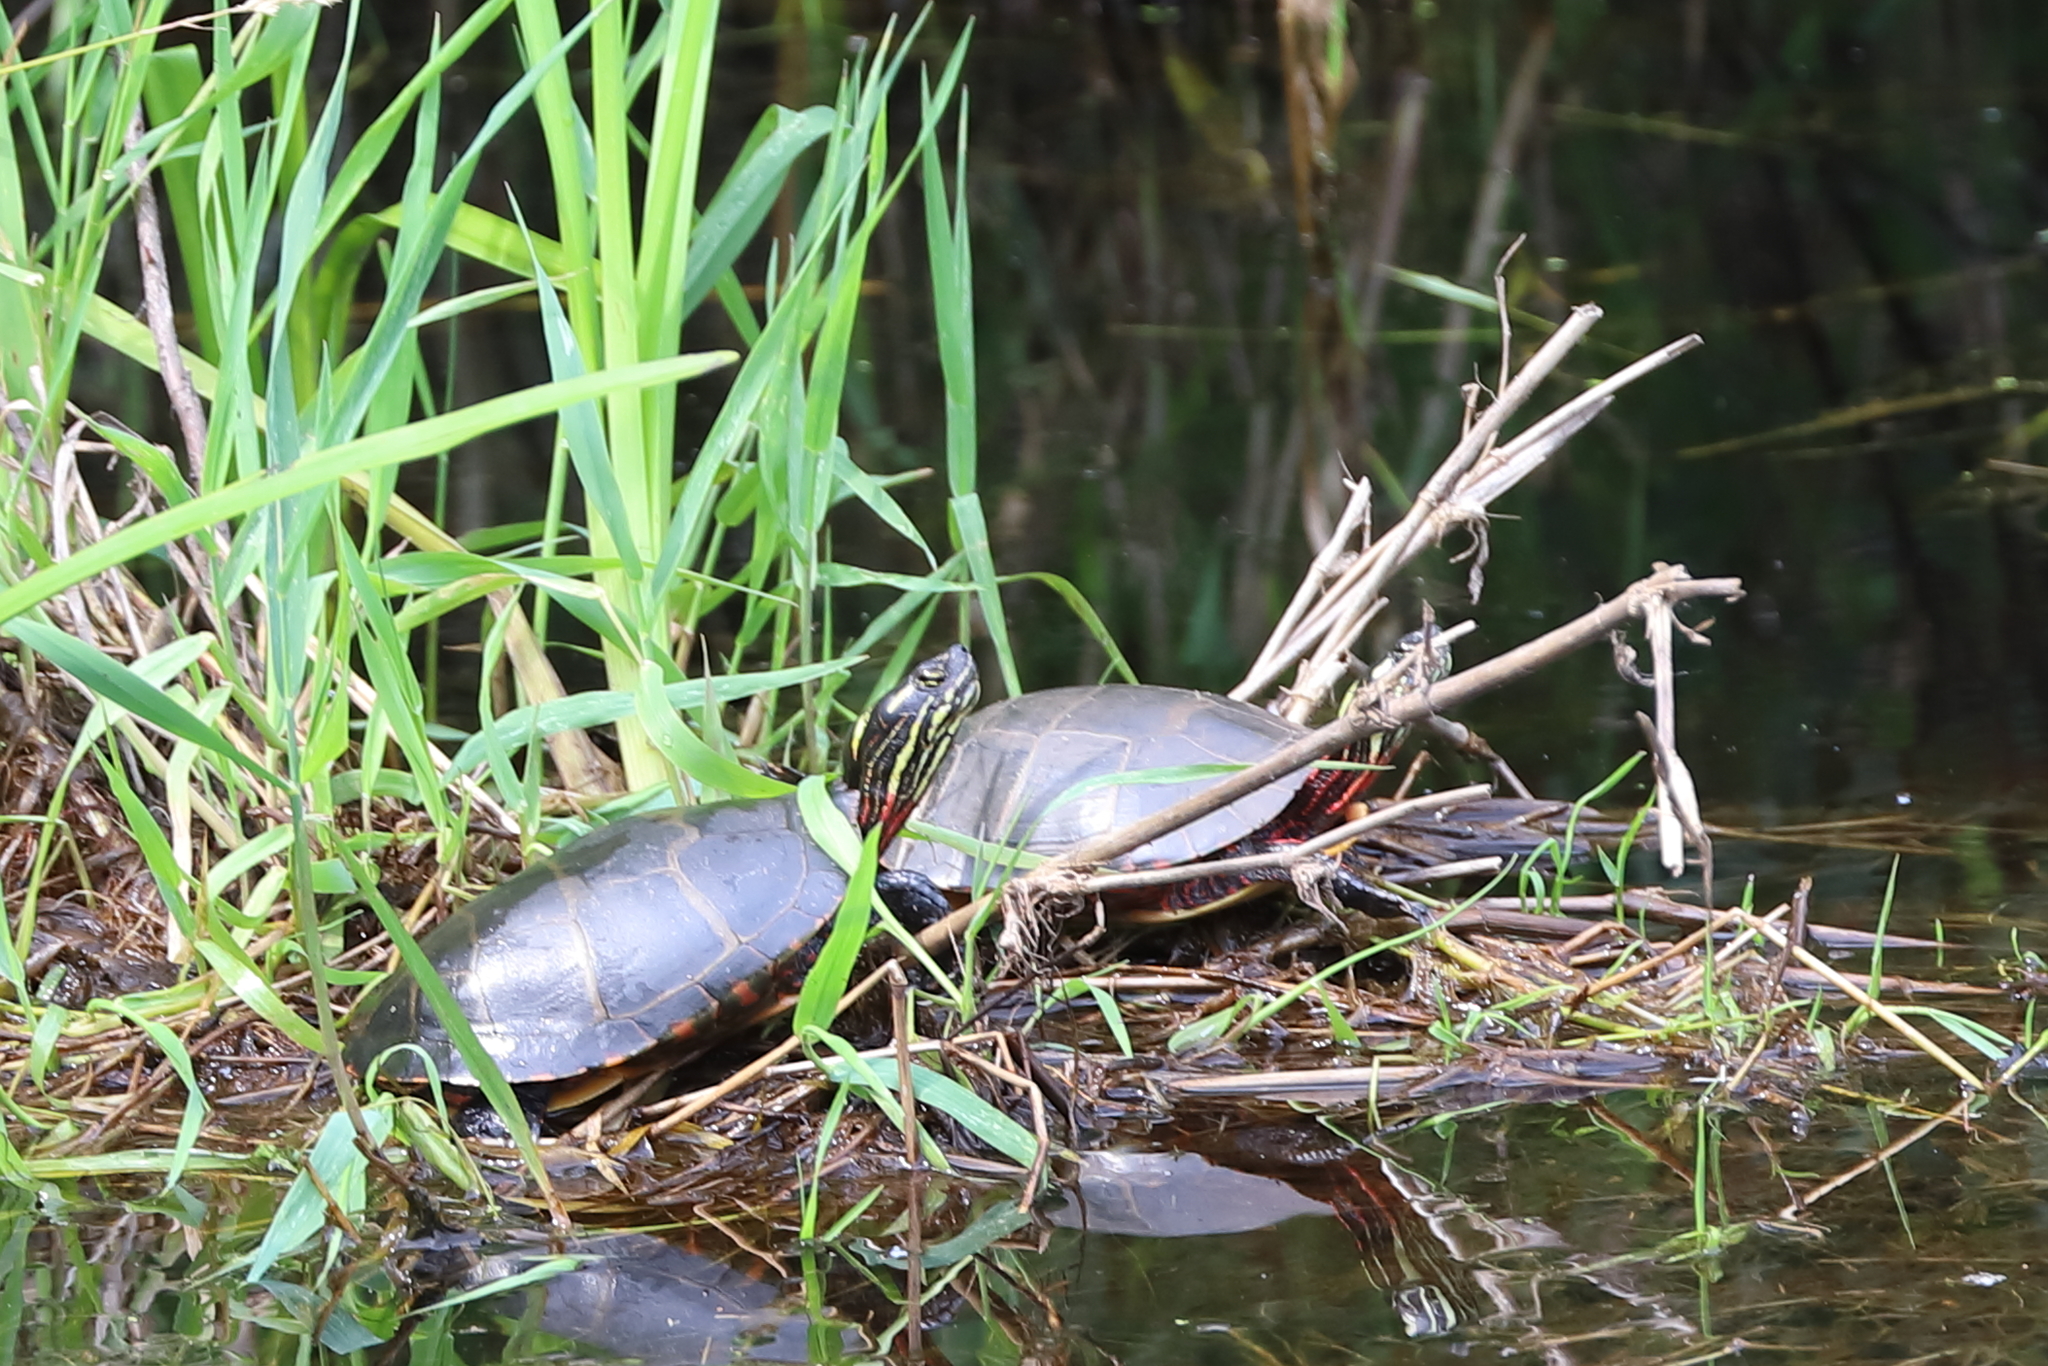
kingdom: Animalia
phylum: Chordata
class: Testudines
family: Emydidae
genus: Chrysemys
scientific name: Chrysemys picta
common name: Painted turtle
